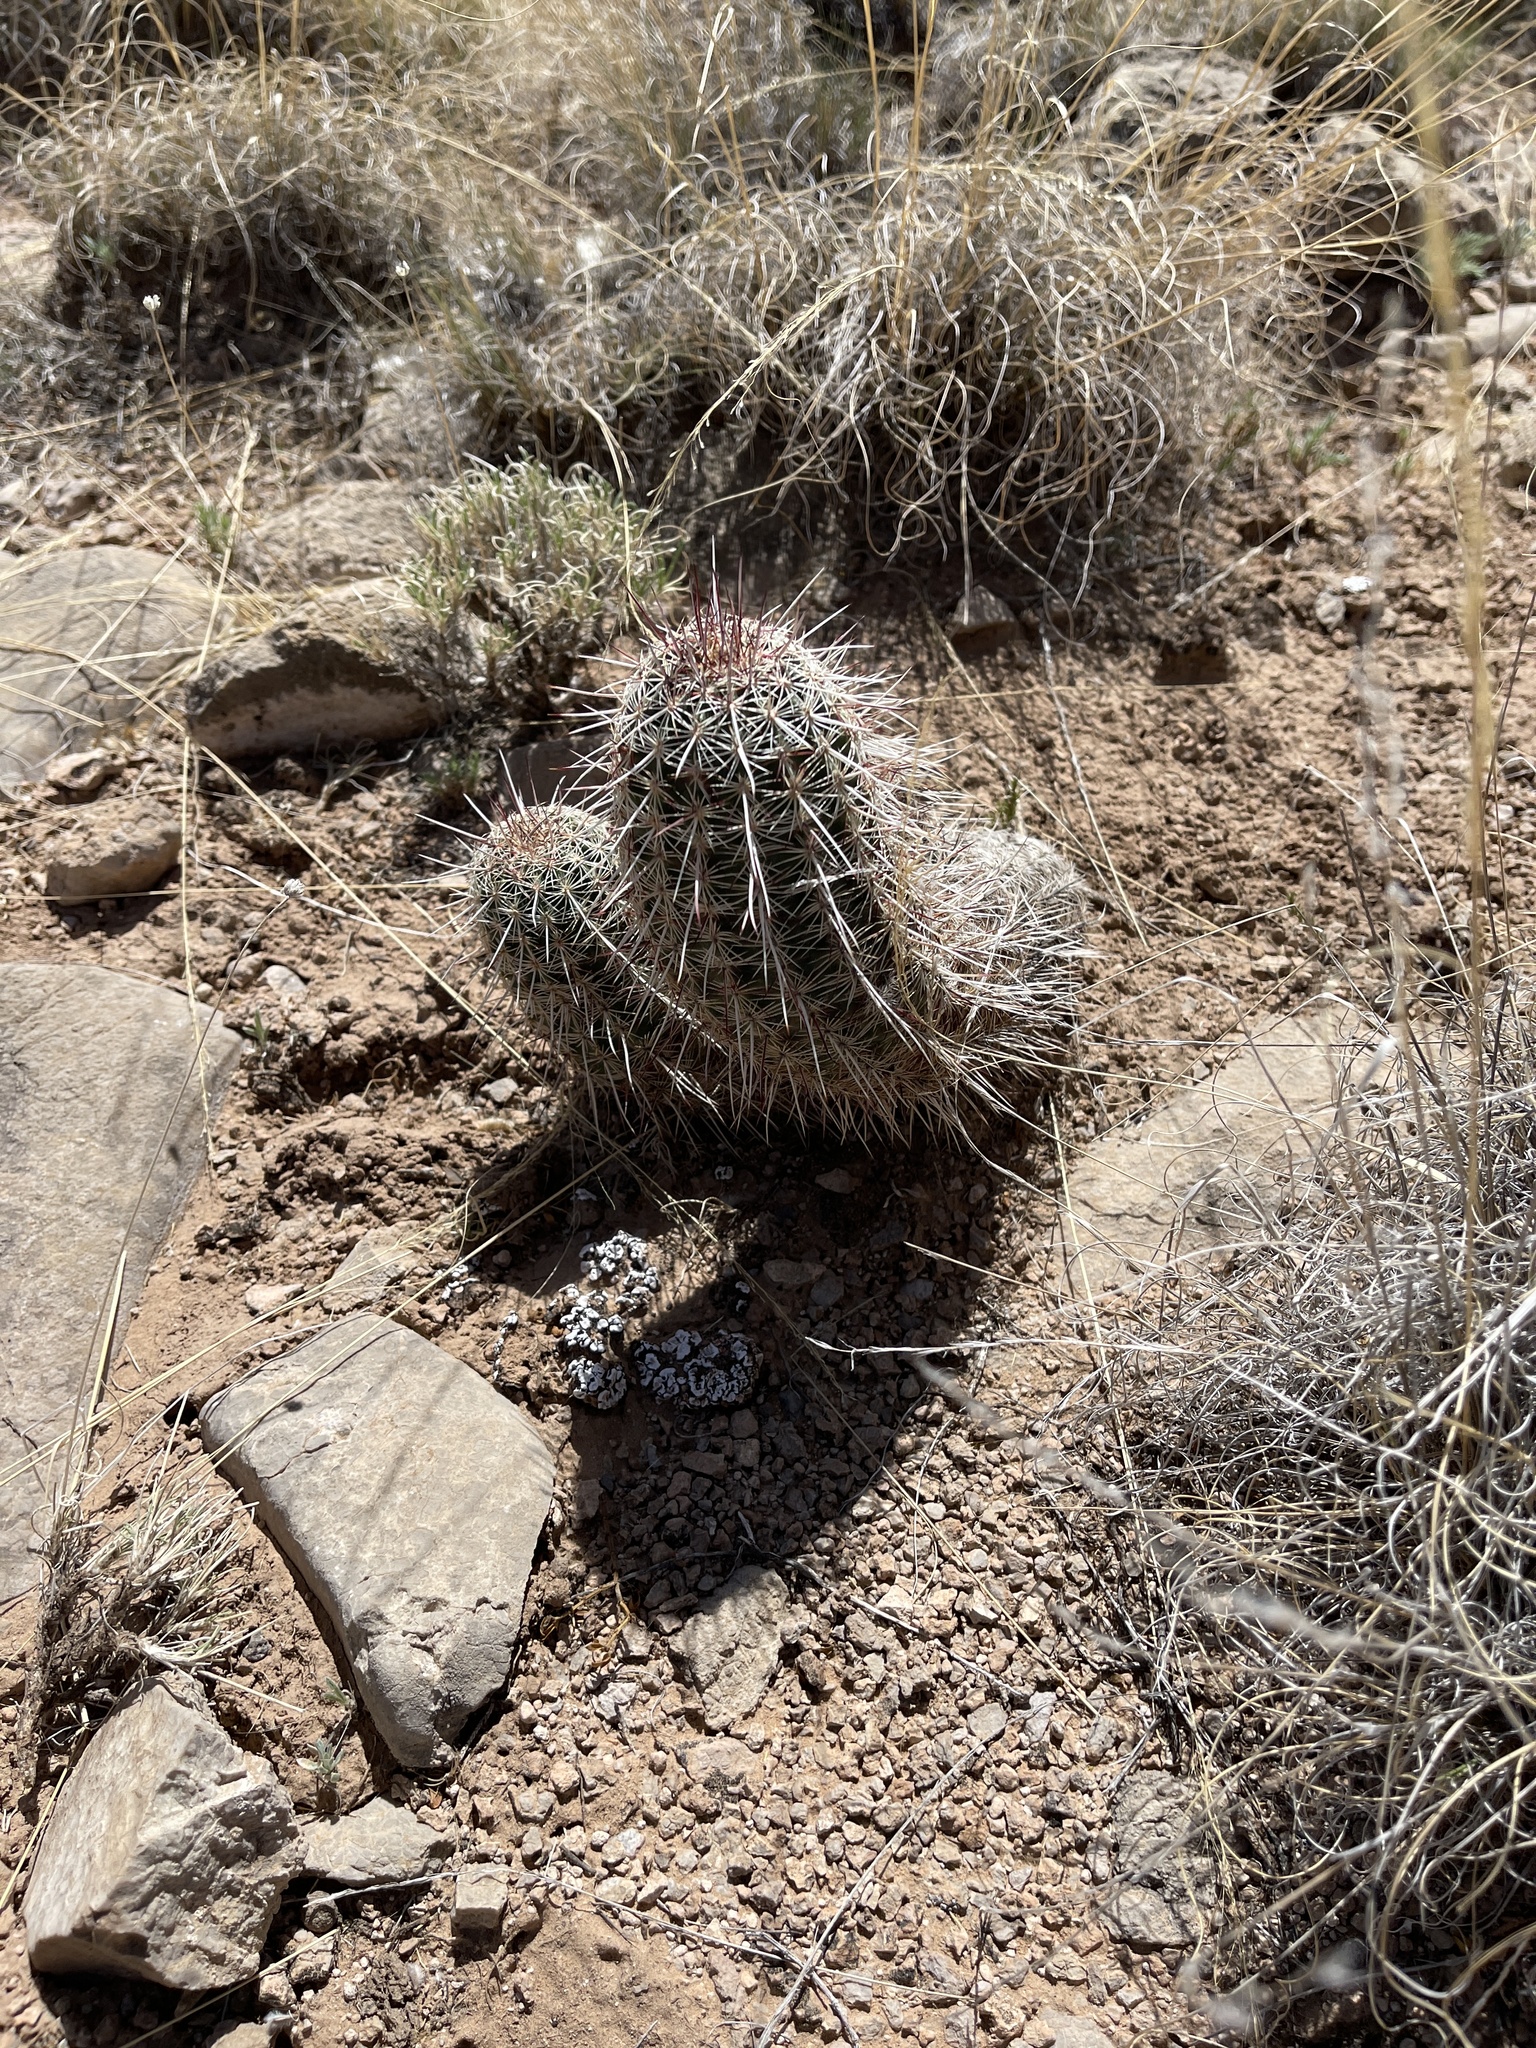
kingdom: Plantae
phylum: Tracheophyta
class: Magnoliopsida
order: Caryophyllales
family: Cactaceae
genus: Echinocereus
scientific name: Echinocereus viridiflorus
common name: Nylon hedgehog cactus
